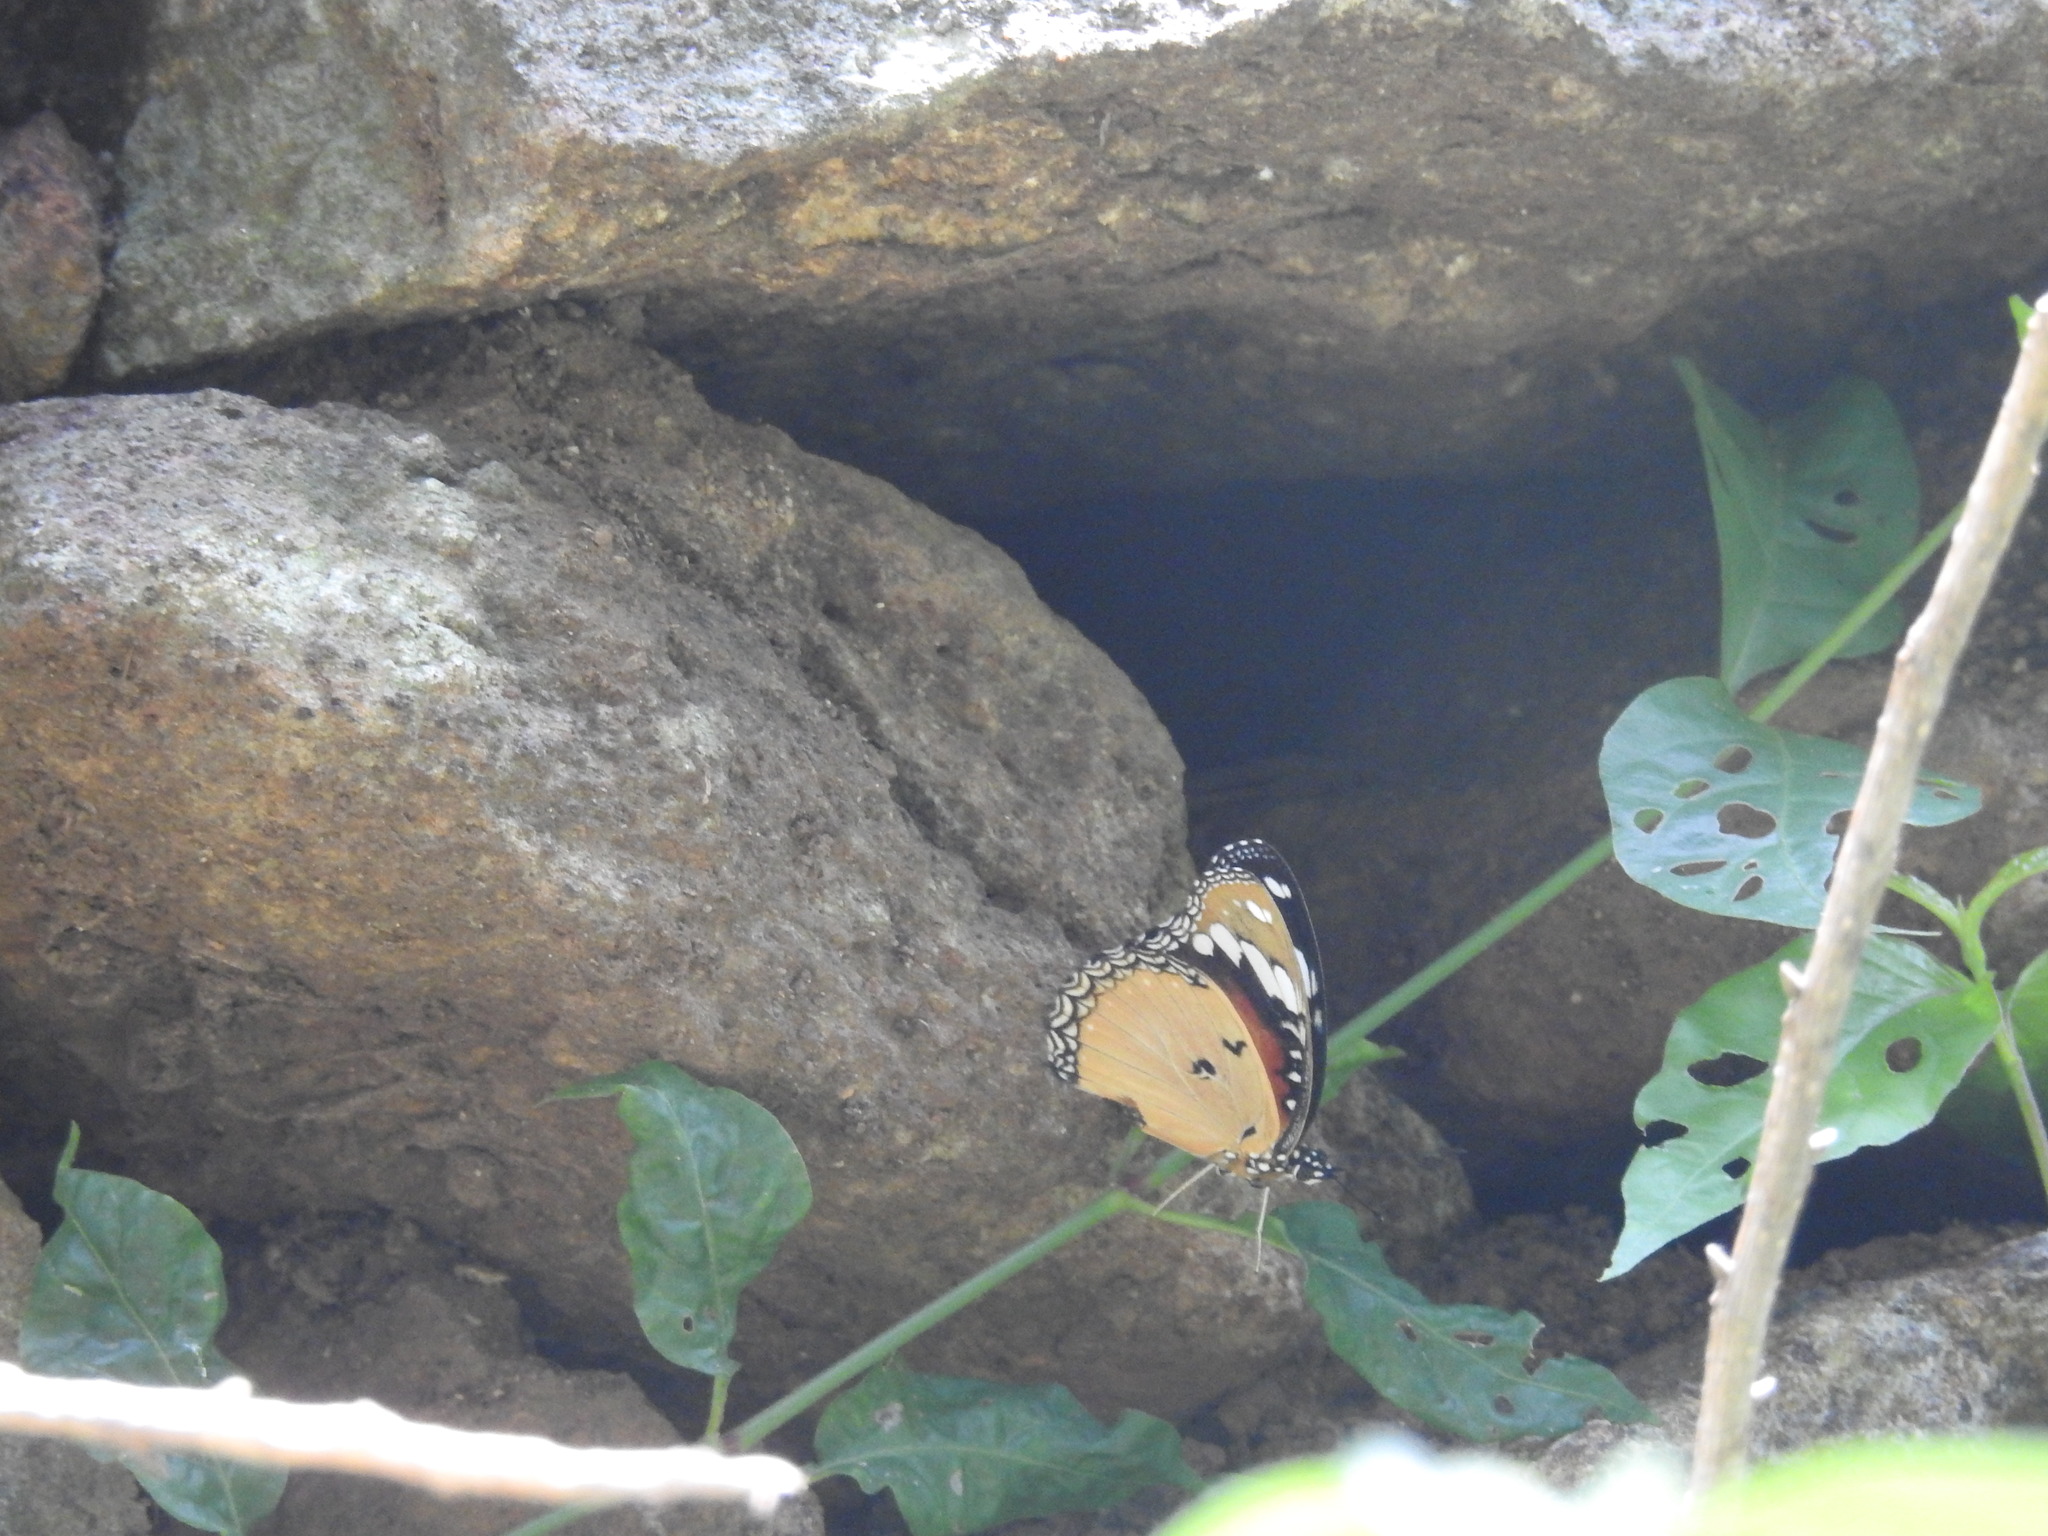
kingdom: Animalia
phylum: Arthropoda
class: Insecta
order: Lepidoptera
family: Nymphalidae
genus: Hypolimnas
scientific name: Hypolimnas misippus
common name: False plain tiger
